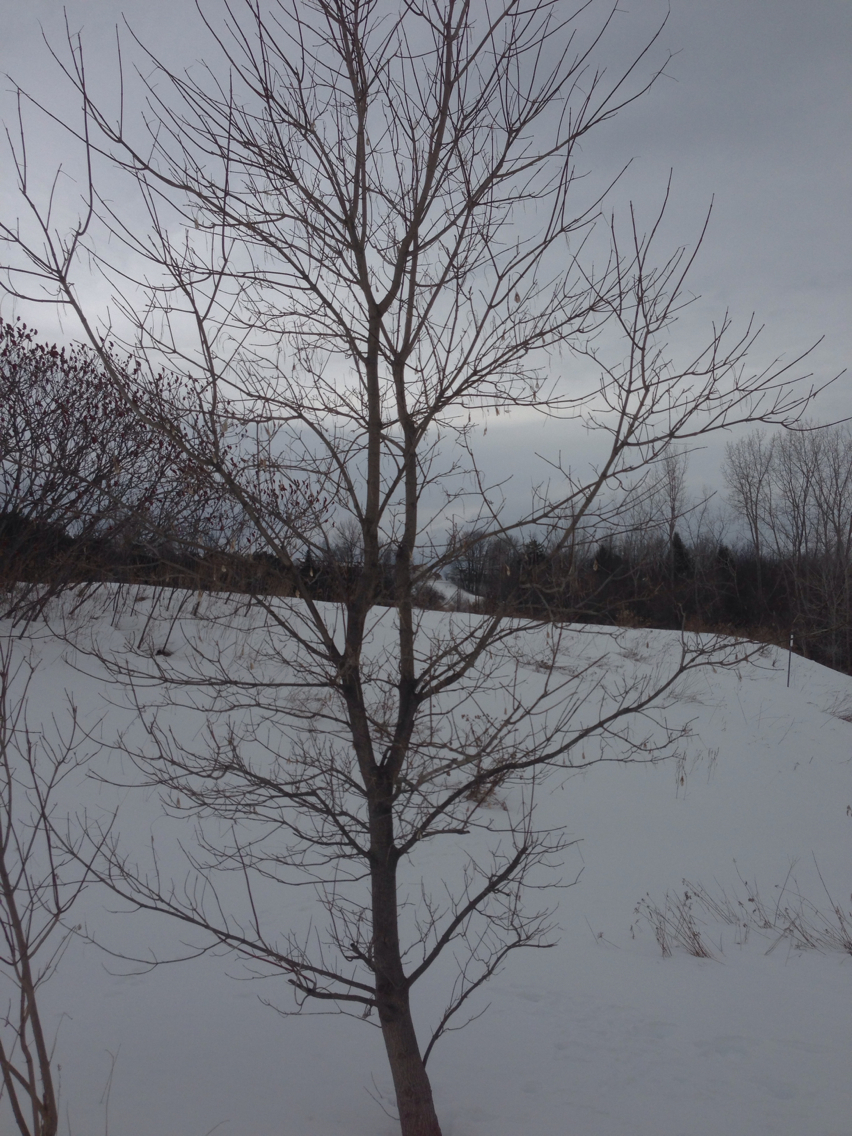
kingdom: Plantae
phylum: Tracheophyta
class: Magnoliopsida
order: Sapindales
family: Sapindaceae
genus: Acer
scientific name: Acer negundo
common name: Ashleaf maple
